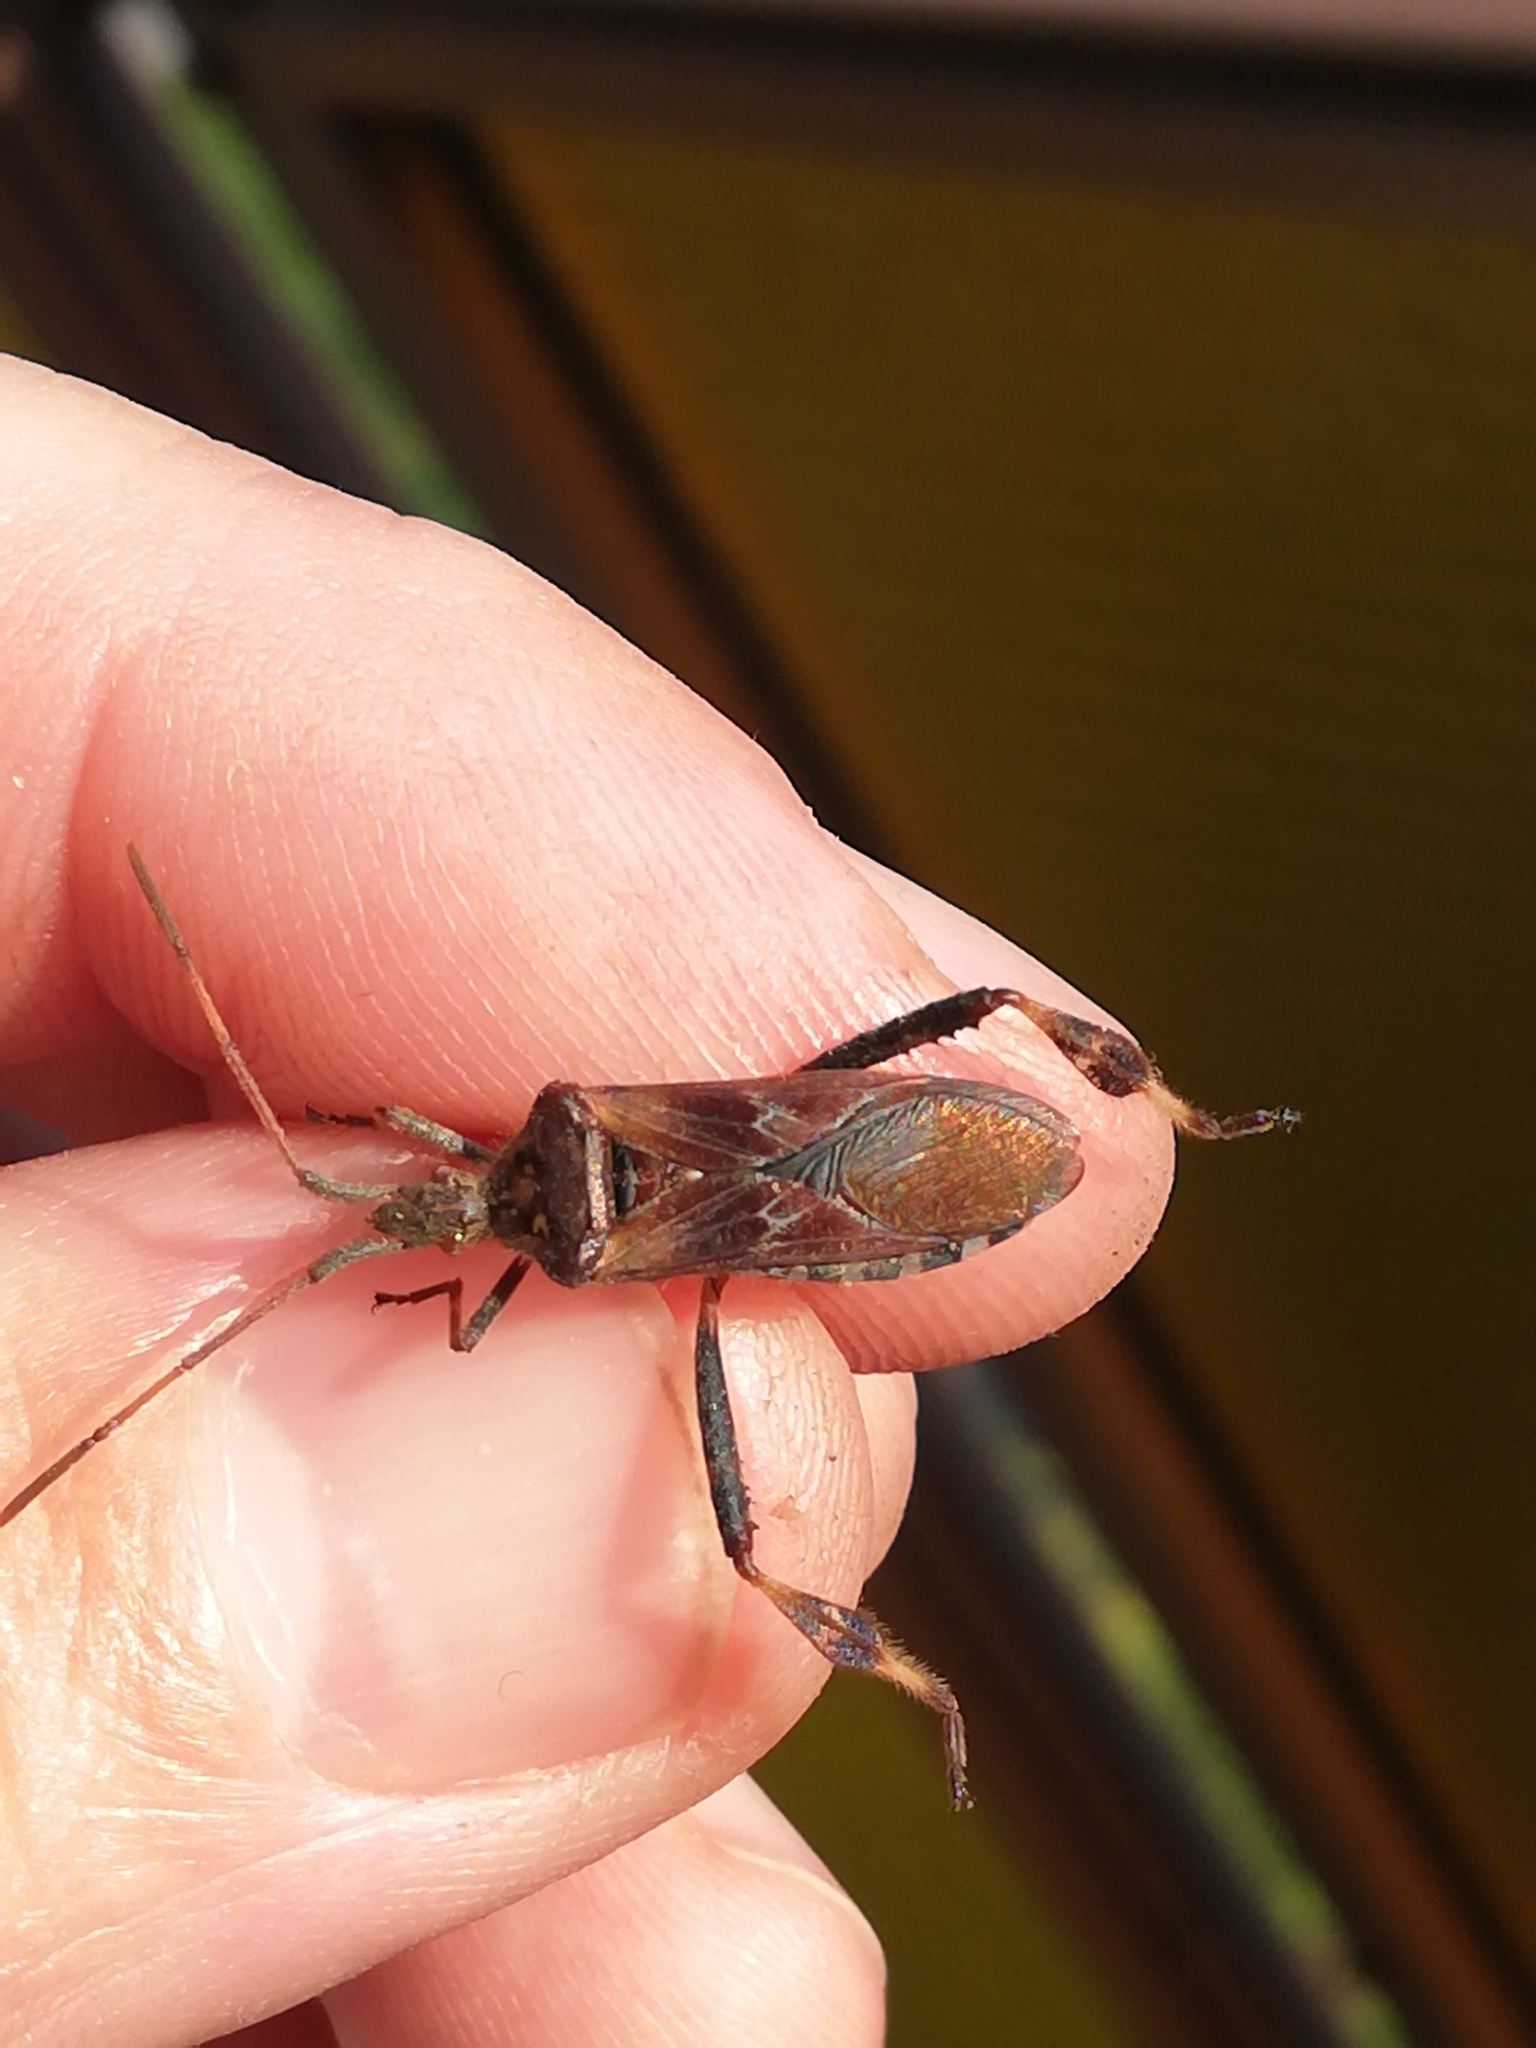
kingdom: Animalia
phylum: Arthropoda
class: Insecta
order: Hemiptera
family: Coreidae
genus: Leptoglossus
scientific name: Leptoglossus occidentalis
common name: Western conifer-seed bug
